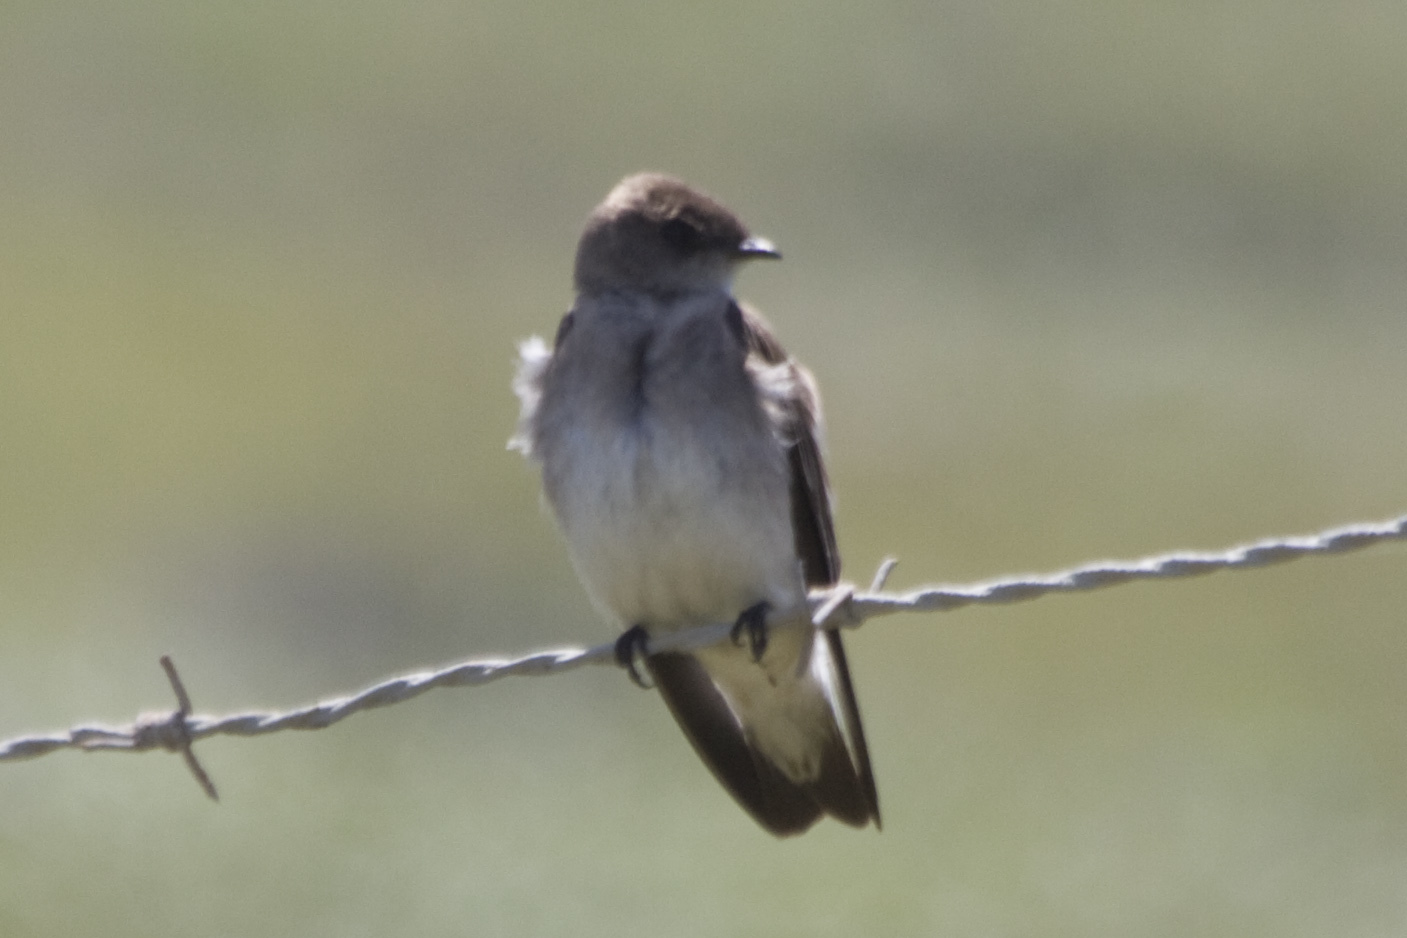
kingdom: Animalia
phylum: Chordata
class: Aves
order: Passeriformes
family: Hirundinidae
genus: Stelgidopteryx
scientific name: Stelgidopteryx serripennis
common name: Northern rough-winged swallow
